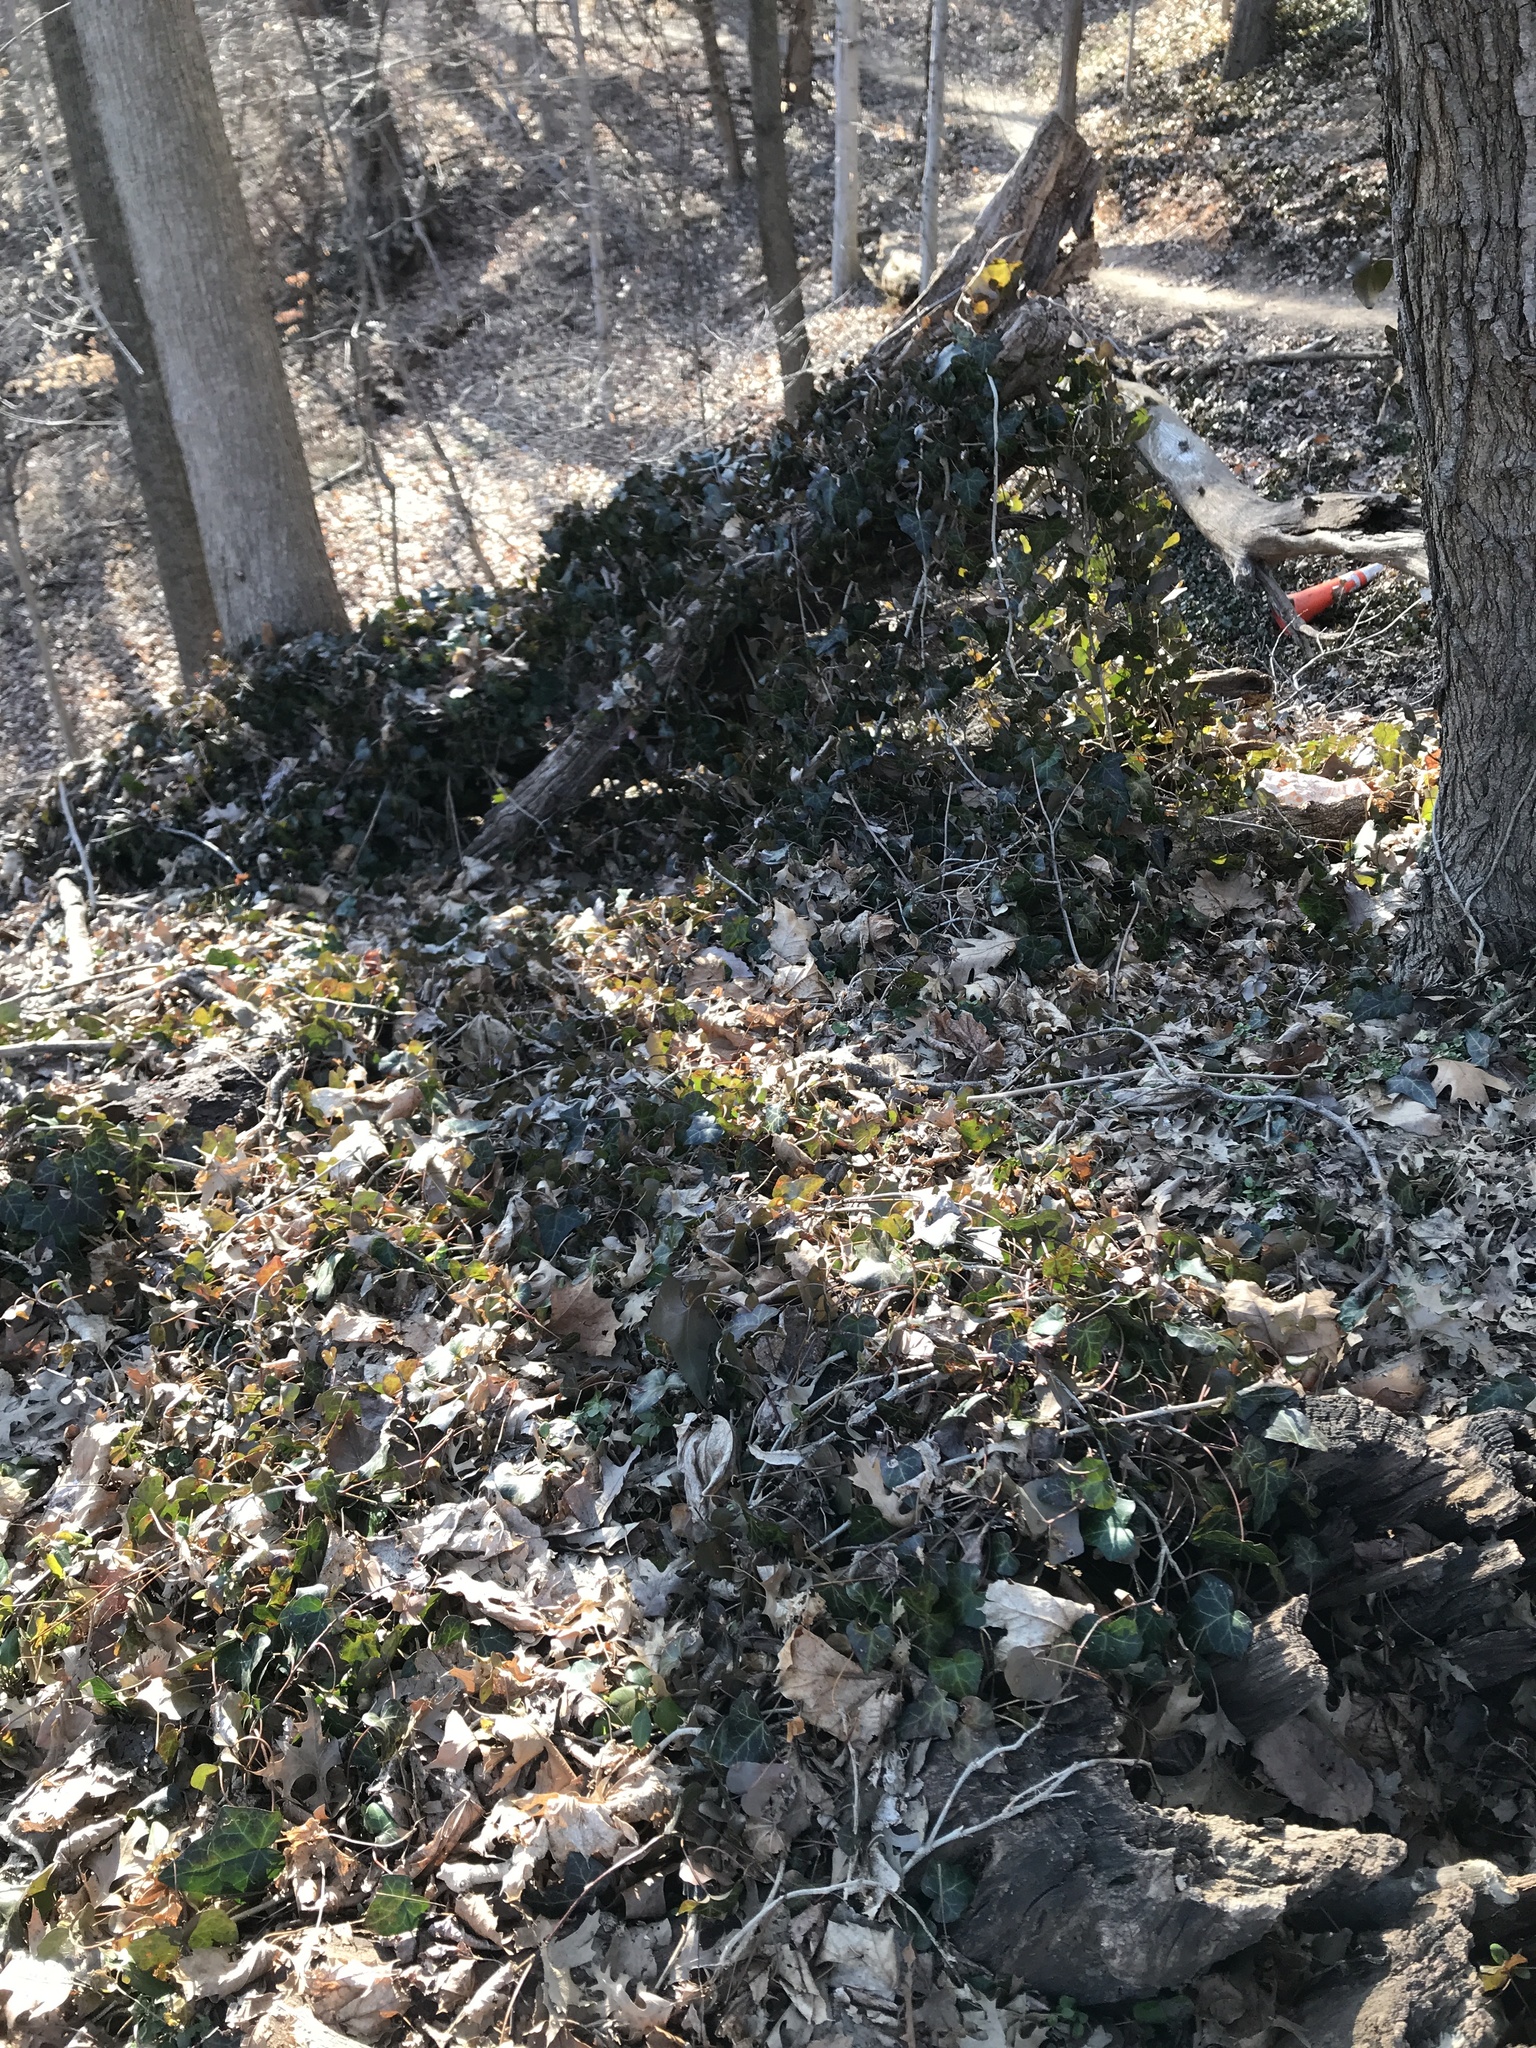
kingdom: Plantae
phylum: Tracheophyta
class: Magnoliopsida
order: Apiales
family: Araliaceae
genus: Hedera
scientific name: Hedera helix
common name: Ivy
